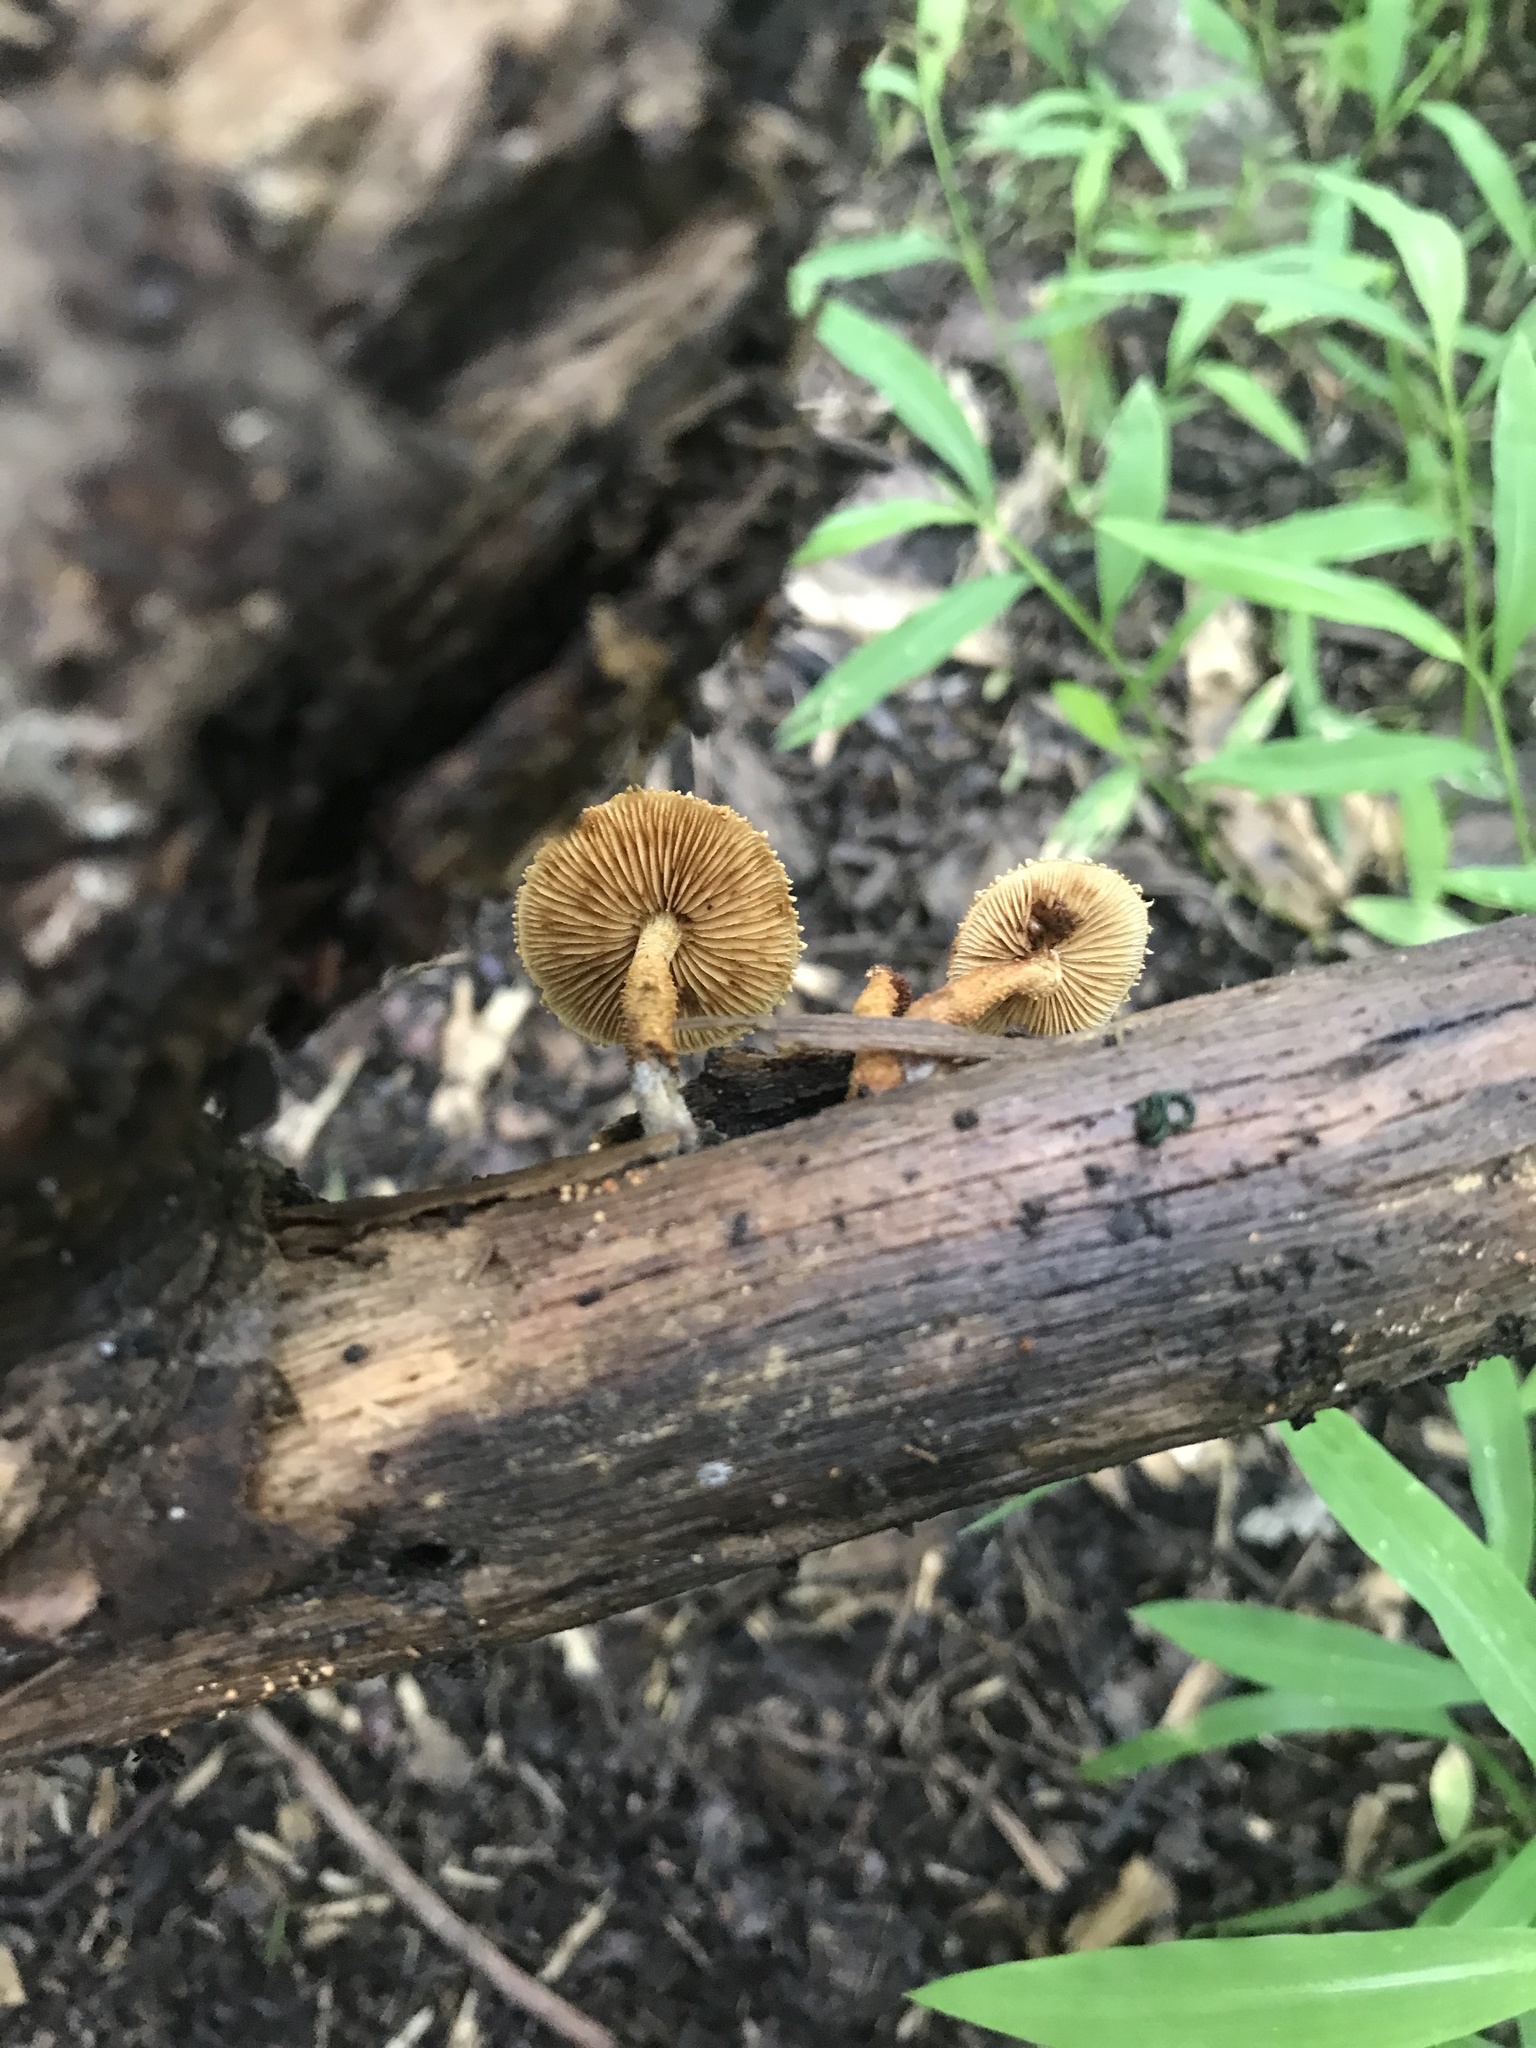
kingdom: Fungi
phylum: Basidiomycota
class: Agaricomycetes
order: Agaricales
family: Tubariaceae
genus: Flammulaster
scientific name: Flammulaster erinaceellus
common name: Powder-scale pholiota
